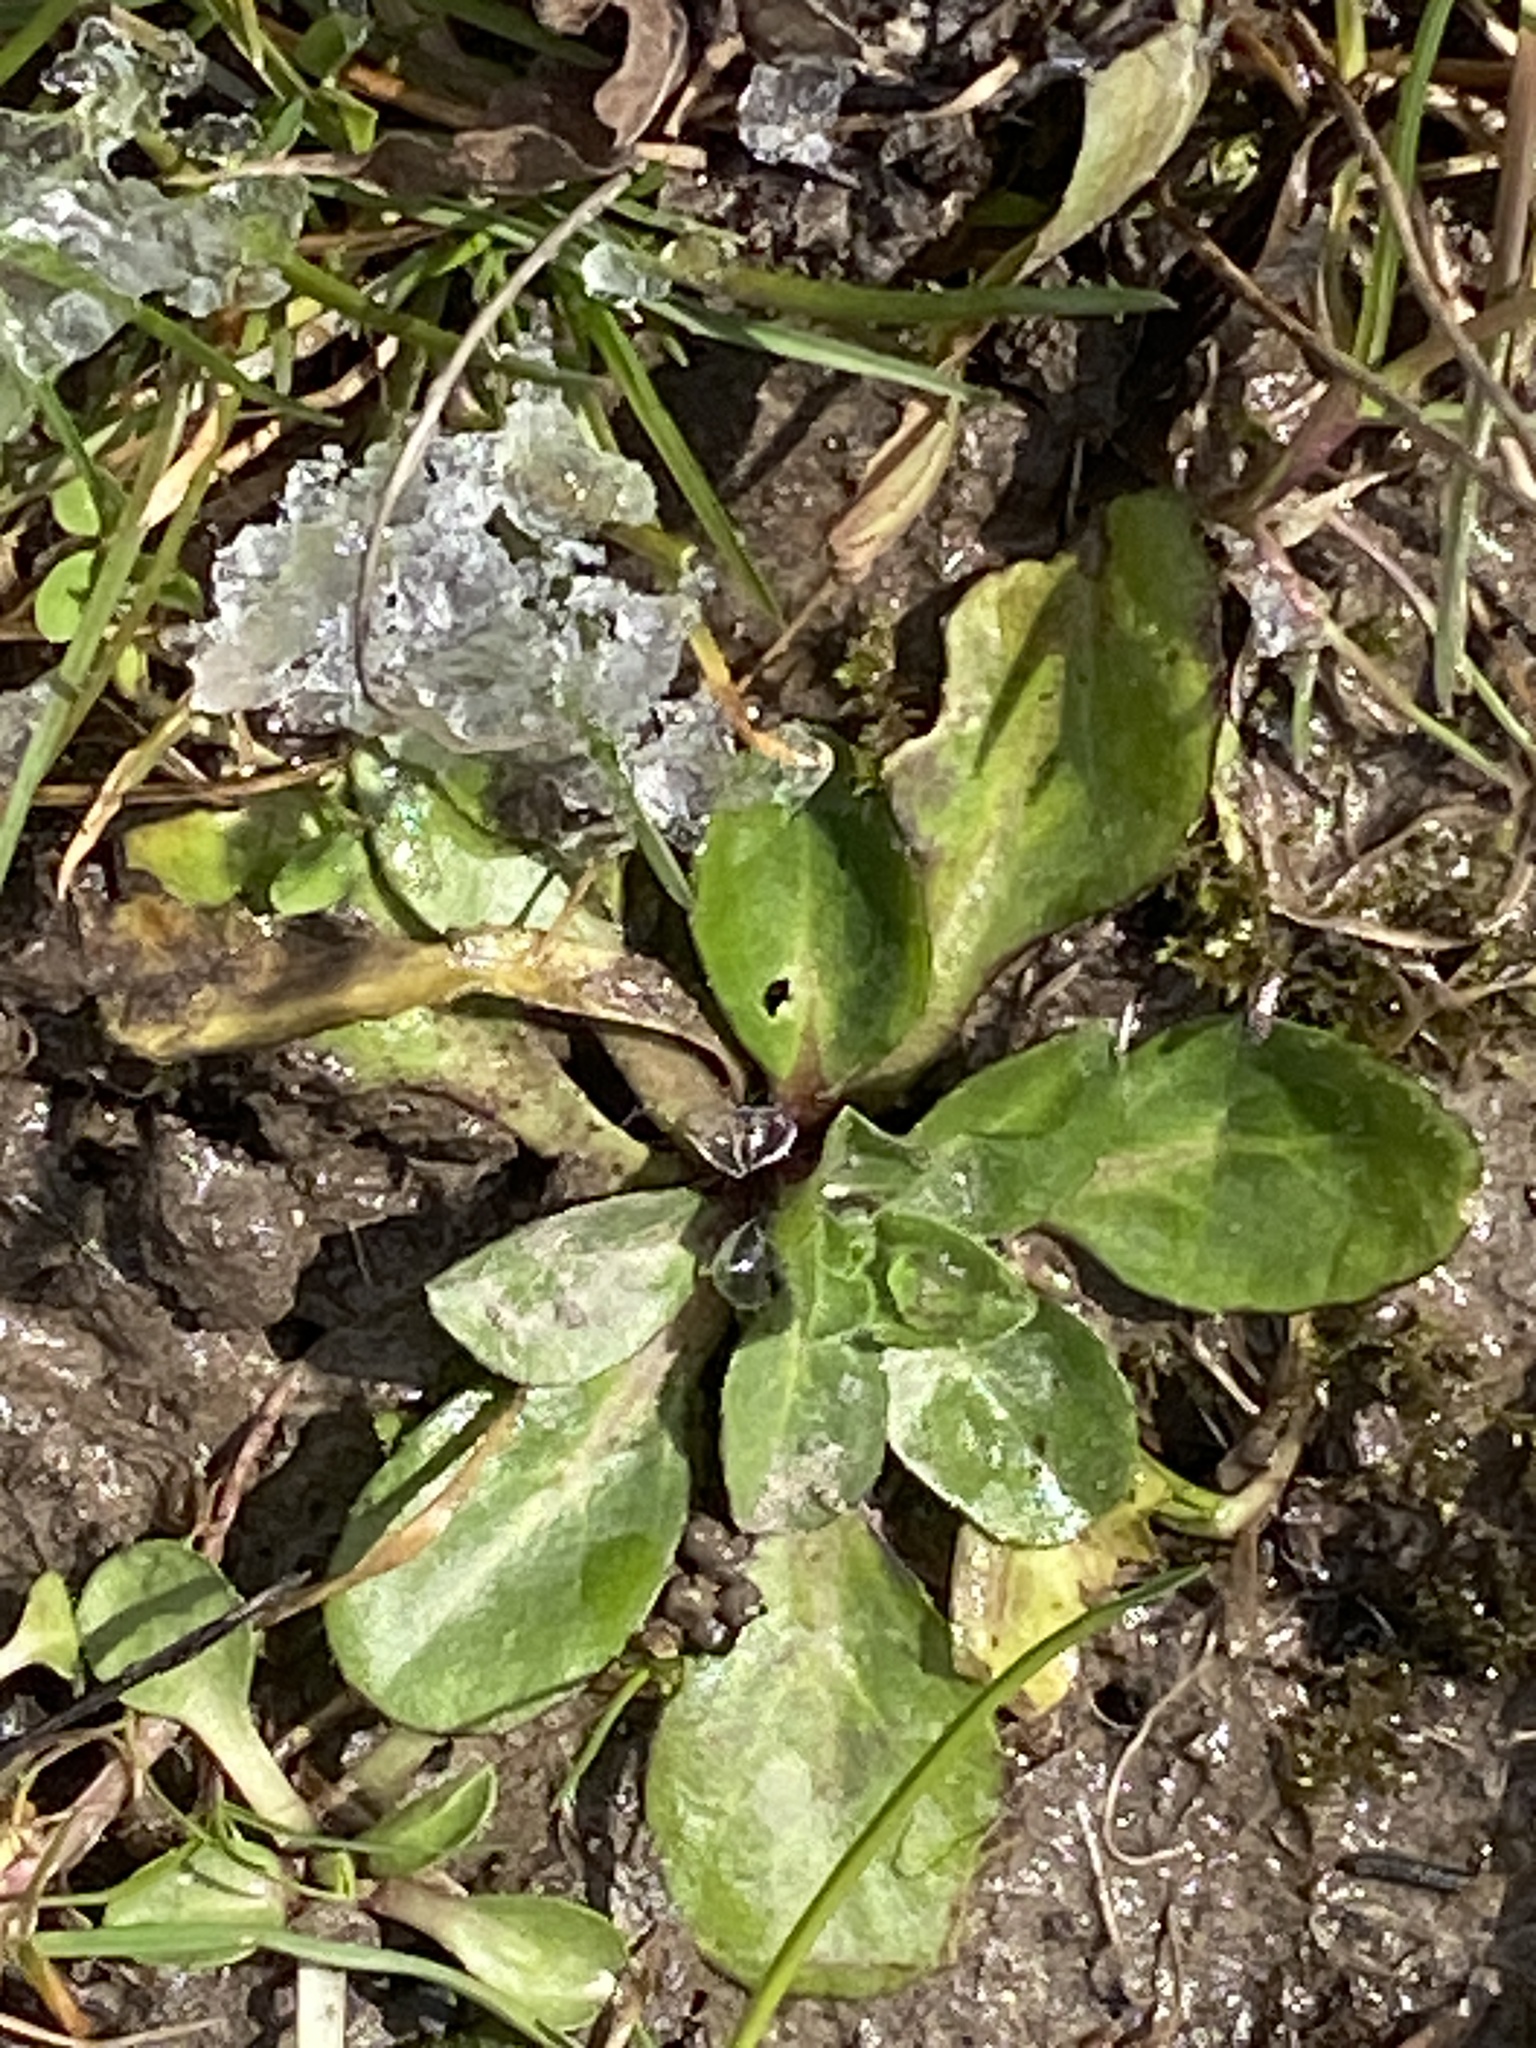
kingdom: Plantae
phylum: Tracheophyta
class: Magnoliopsida
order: Asterales
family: Asteraceae
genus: Bellis
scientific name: Bellis perennis
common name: Lawndaisy
